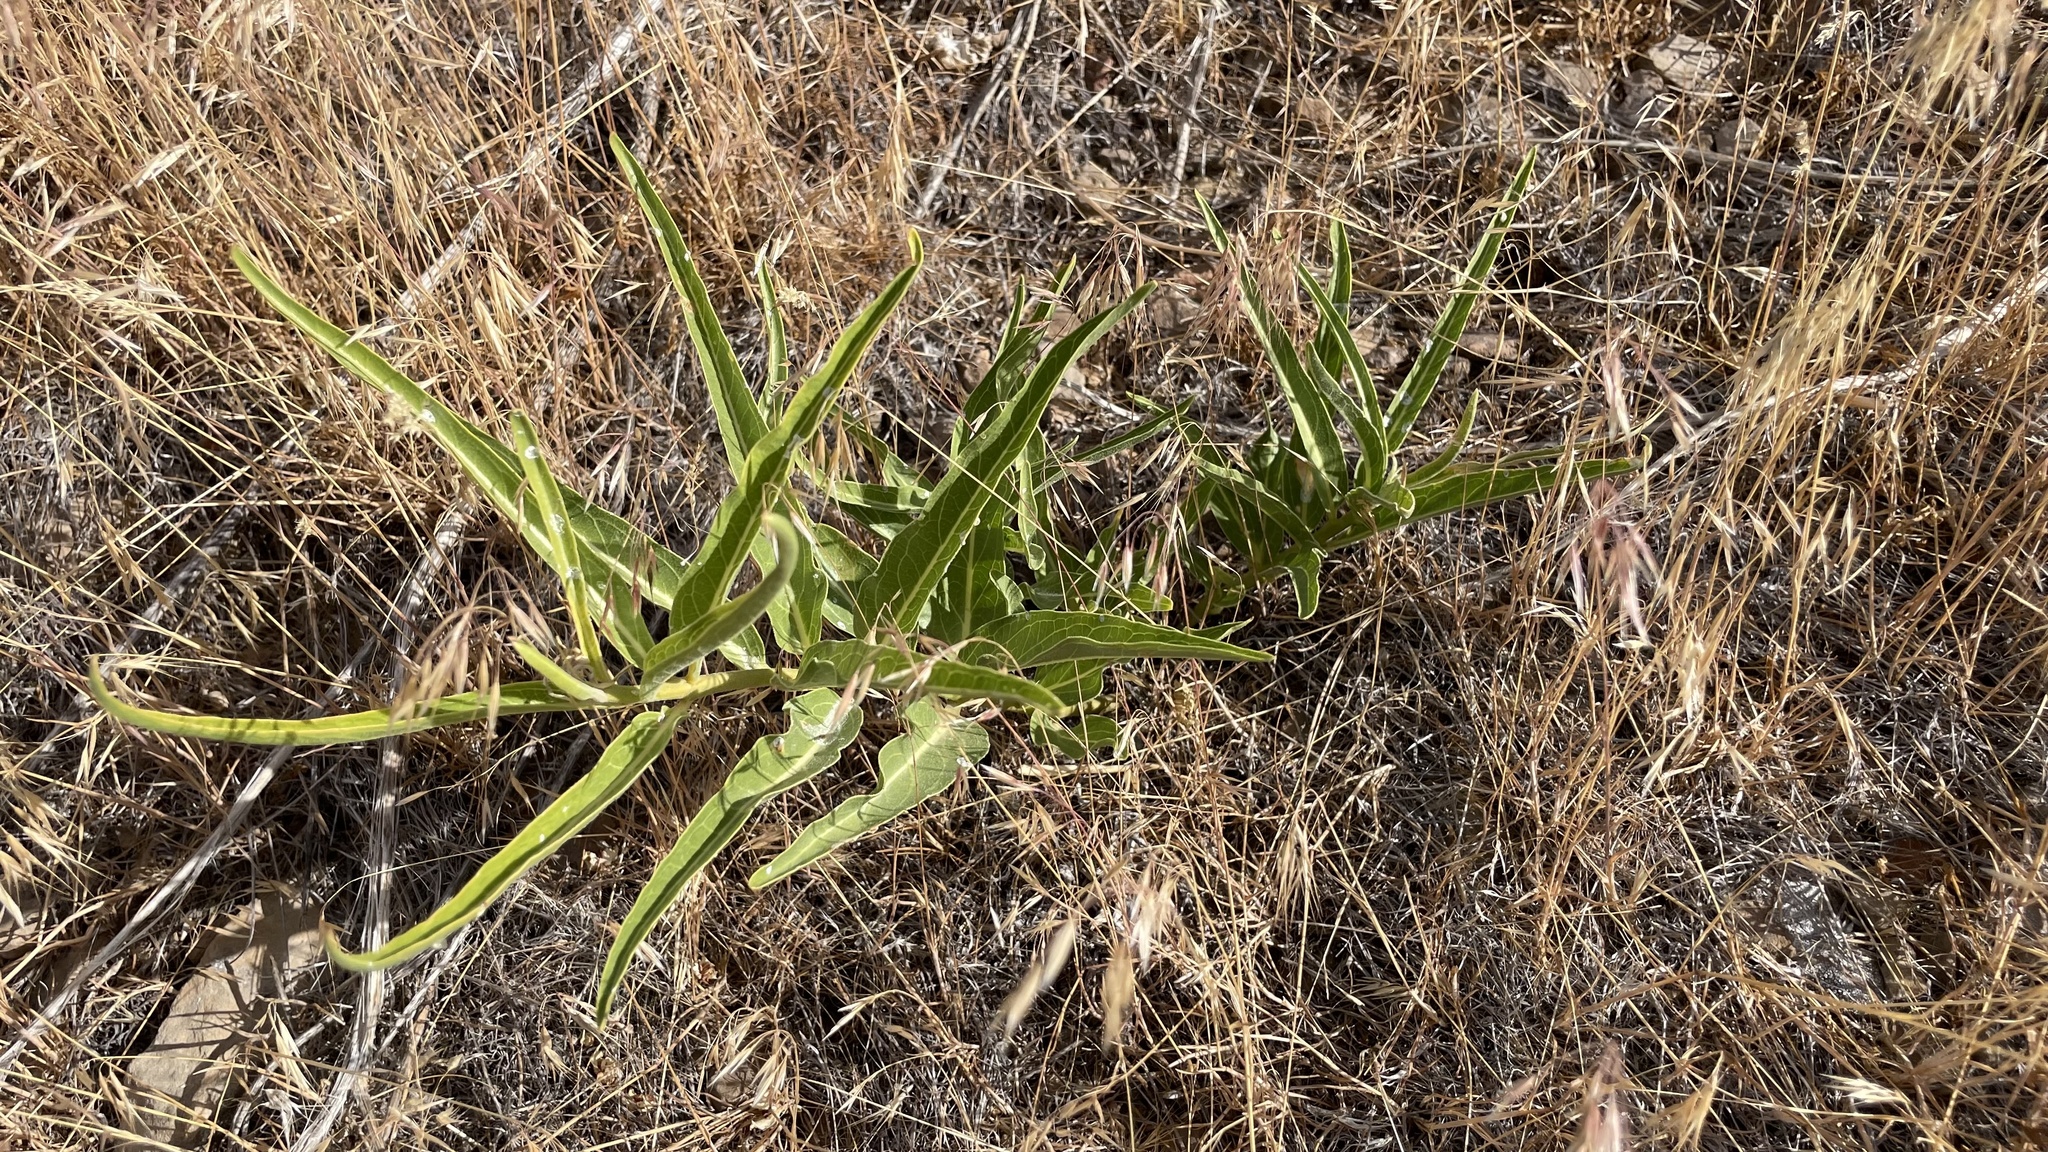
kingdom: Plantae
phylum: Tracheophyta
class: Magnoliopsida
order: Gentianales
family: Apocynaceae
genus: Asclepias
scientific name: Asclepias asperula
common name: Antelope horns
